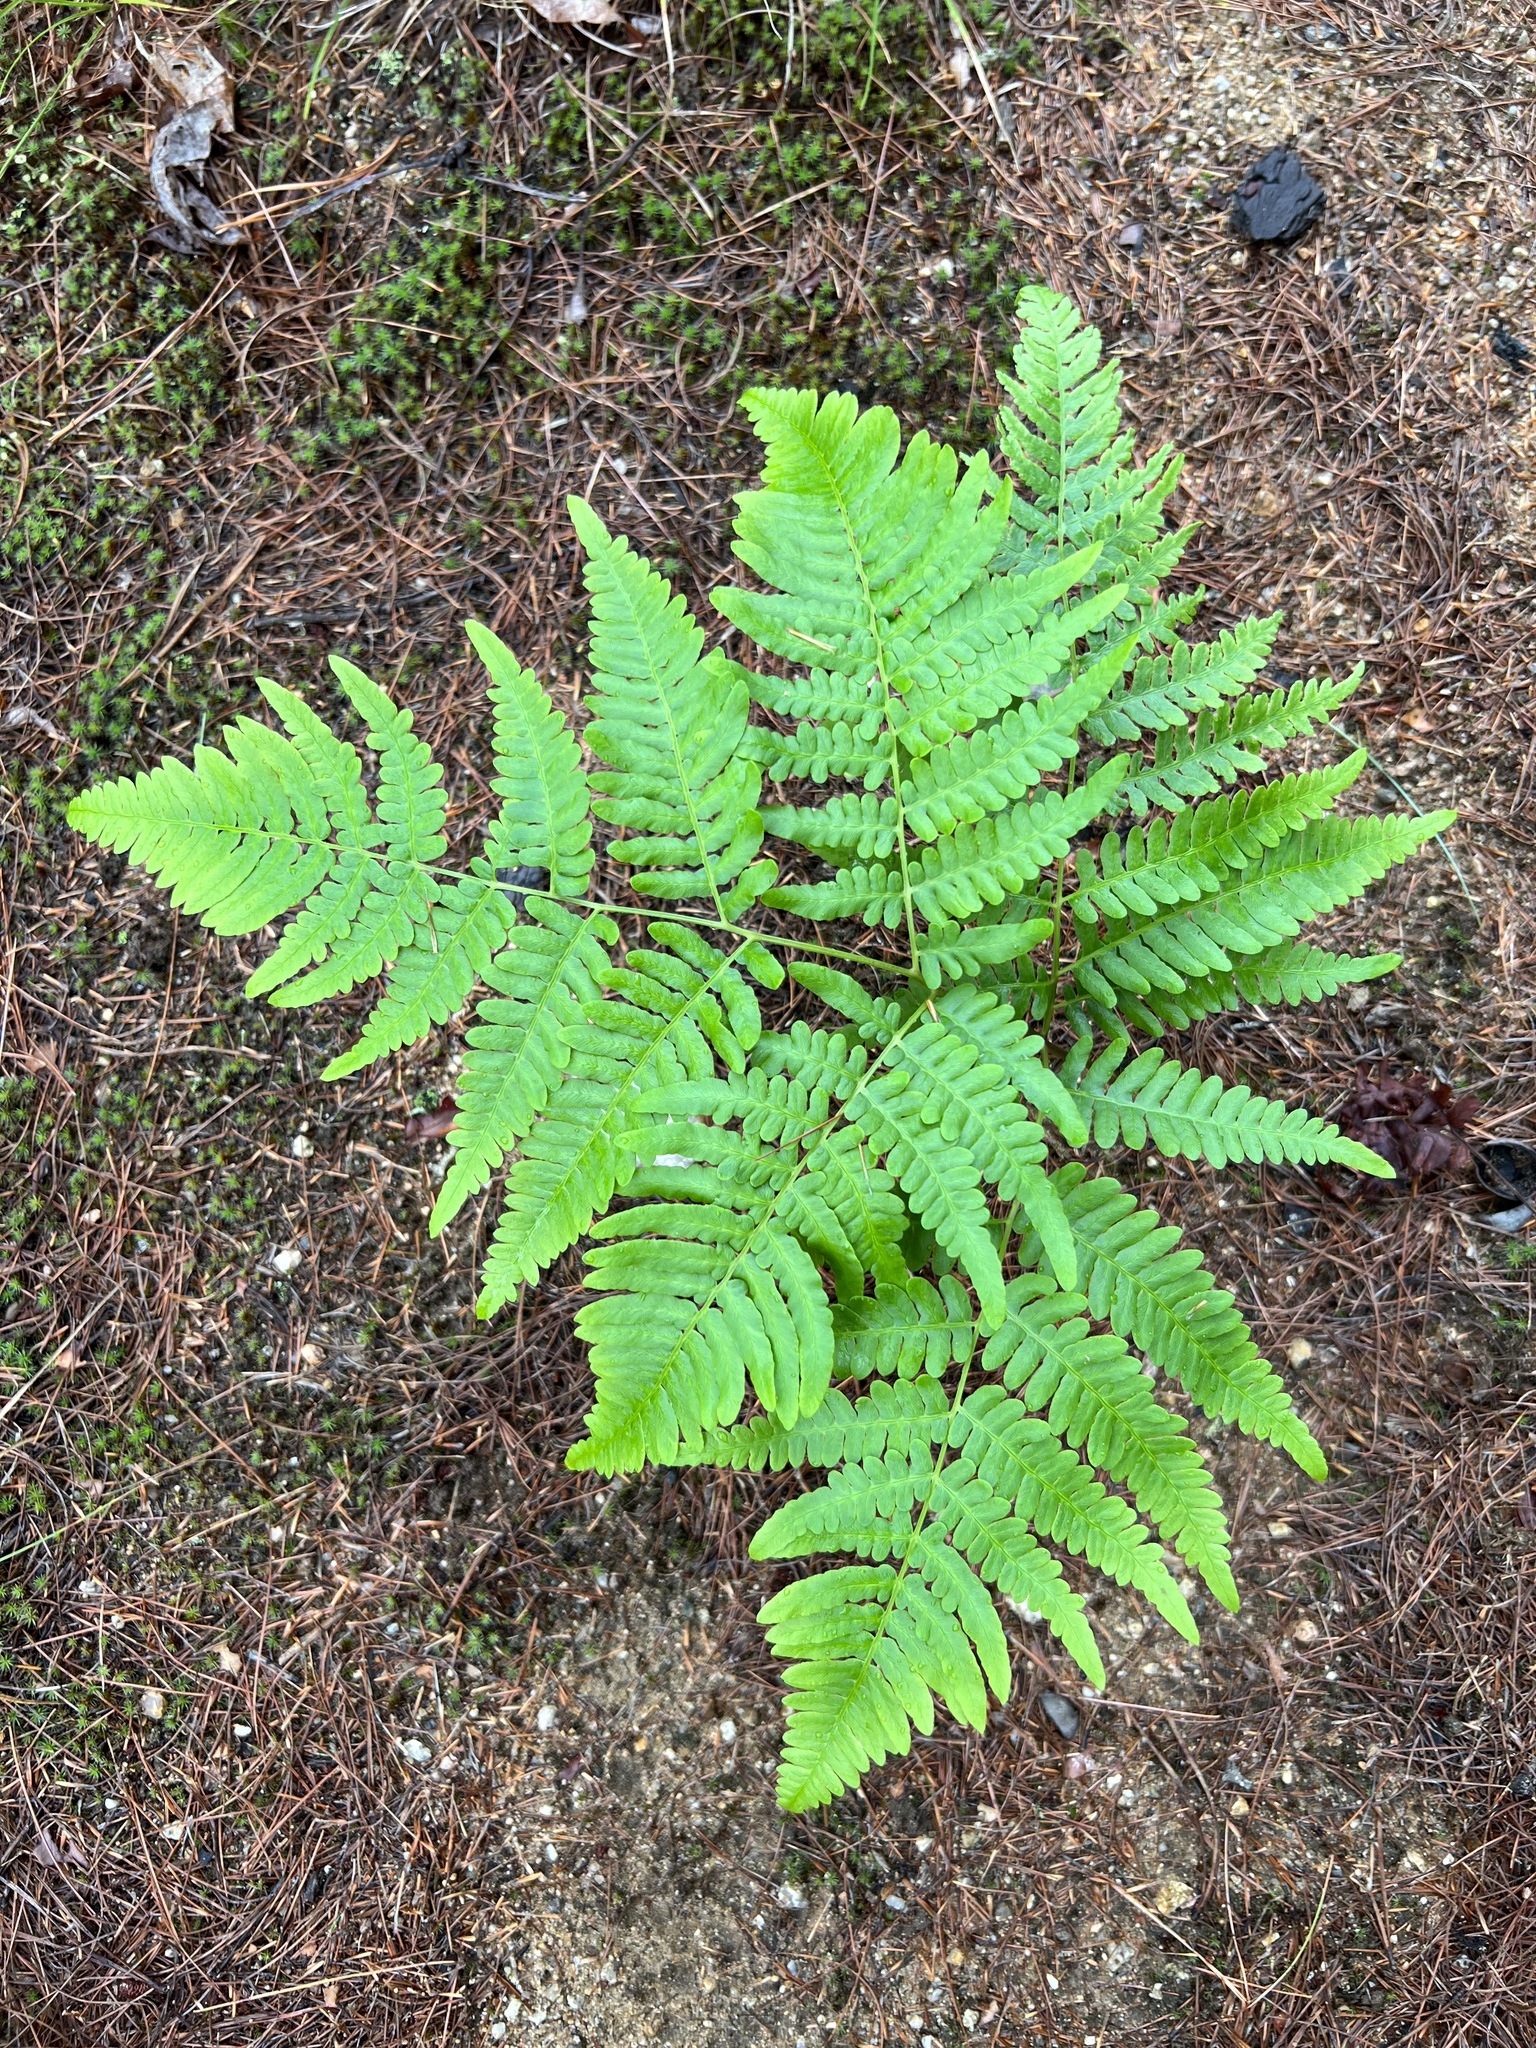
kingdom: Plantae
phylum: Tracheophyta
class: Polypodiopsida
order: Polypodiales
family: Dennstaedtiaceae
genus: Pteridium
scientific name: Pteridium aquilinum
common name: Bracken
